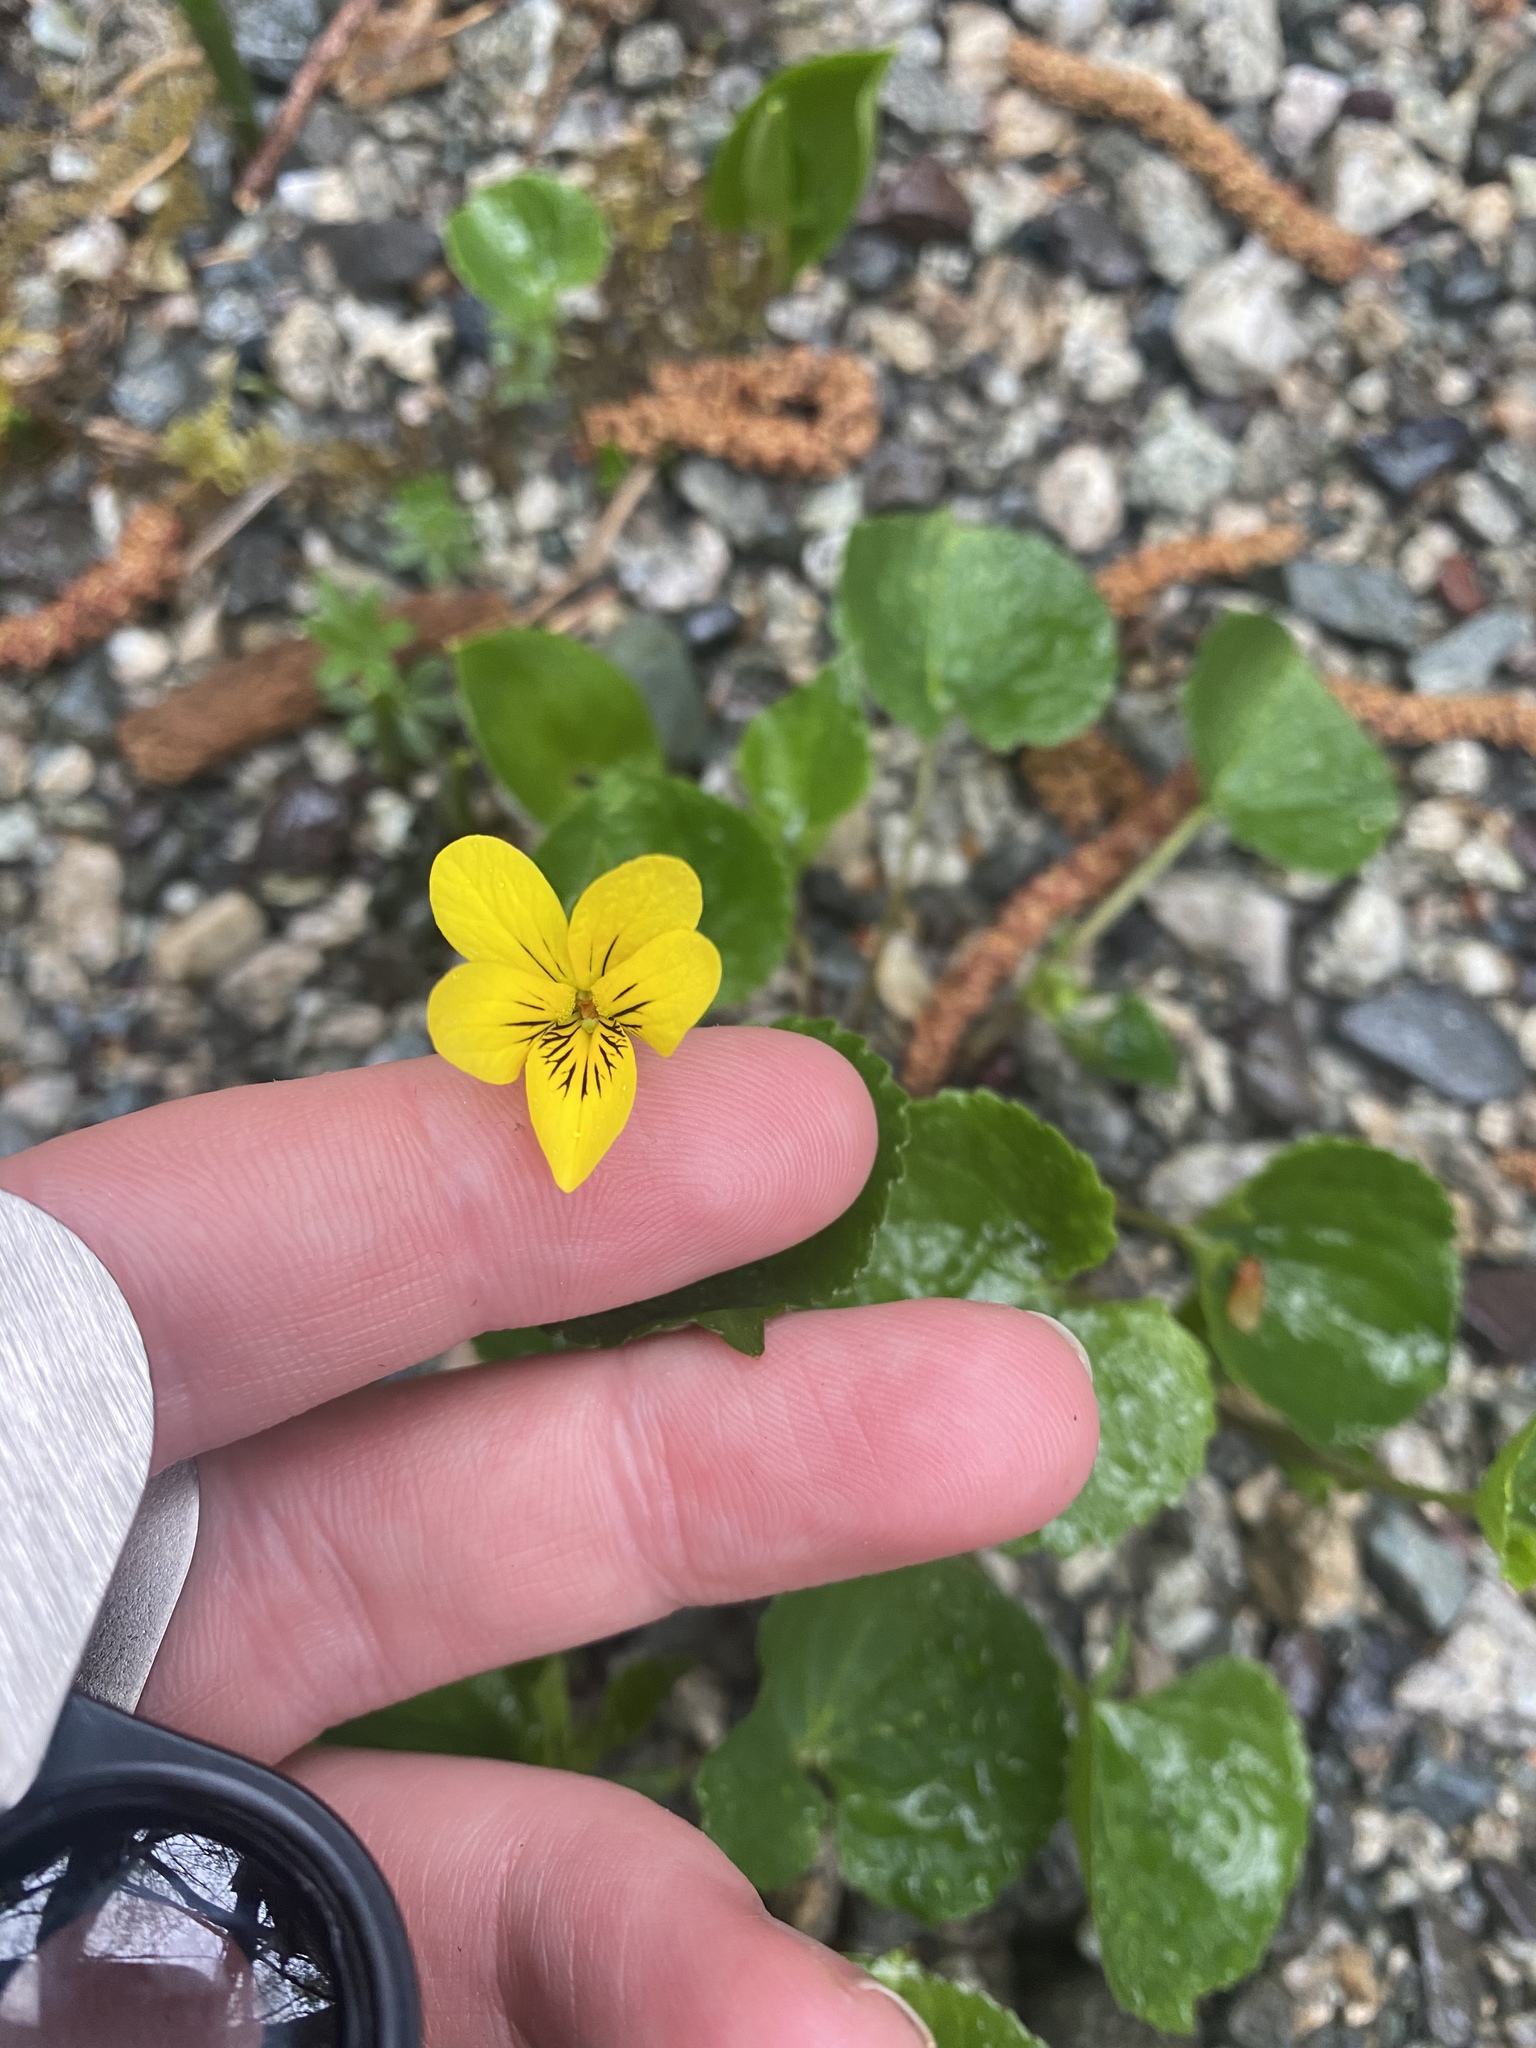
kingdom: Plantae
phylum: Tracheophyta
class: Magnoliopsida
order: Malpighiales
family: Violaceae
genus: Viola
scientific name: Viola glabella
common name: Stream violet
